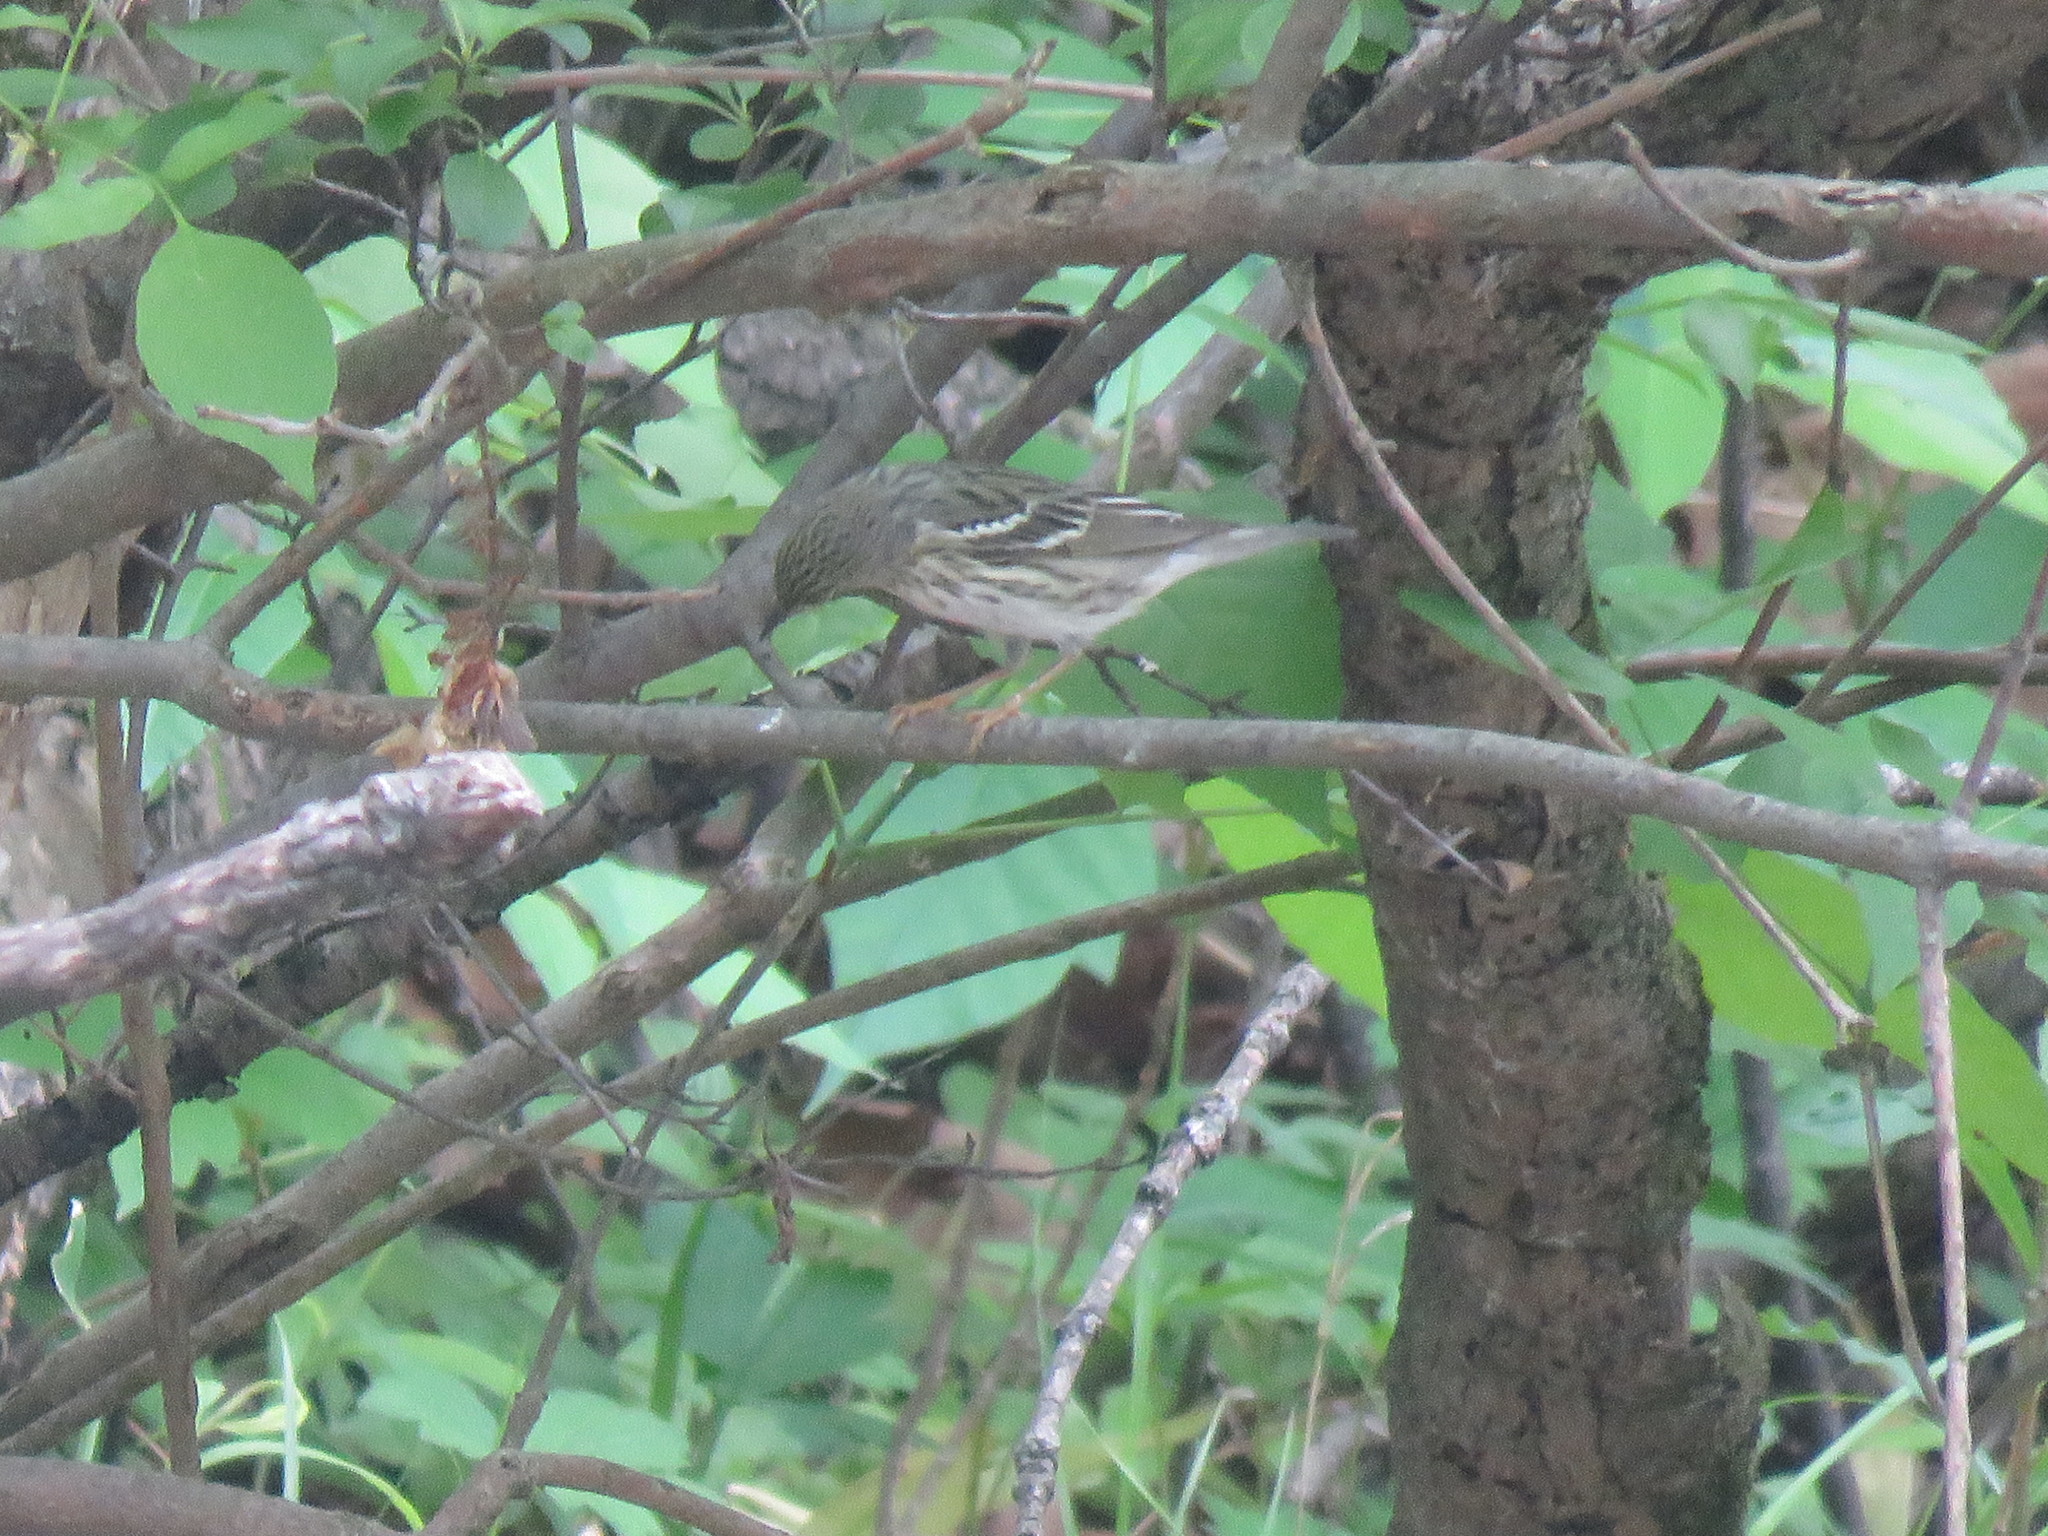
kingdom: Animalia
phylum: Chordata
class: Aves
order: Passeriformes
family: Parulidae
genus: Setophaga
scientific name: Setophaga striata
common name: Blackpoll warbler
